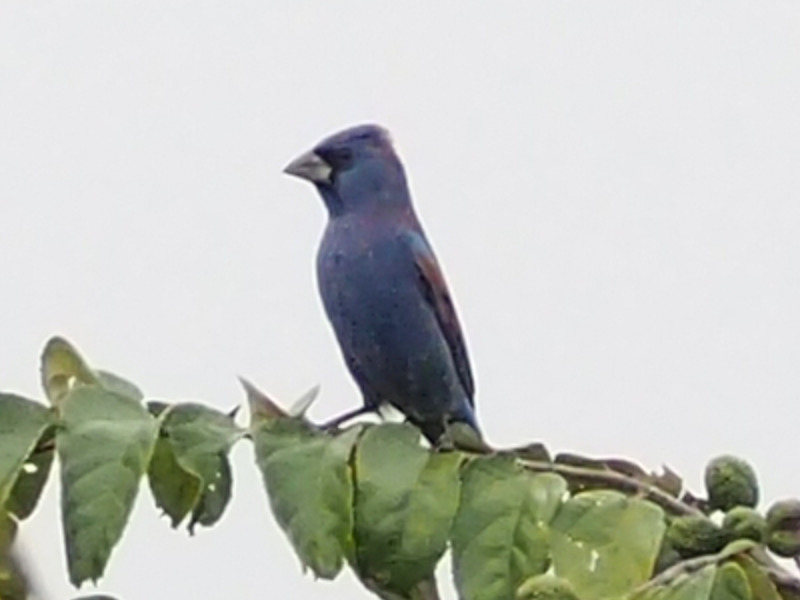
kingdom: Animalia
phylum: Chordata
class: Aves
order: Passeriformes
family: Cardinalidae
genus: Passerina
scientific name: Passerina caerulea
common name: Blue grosbeak
